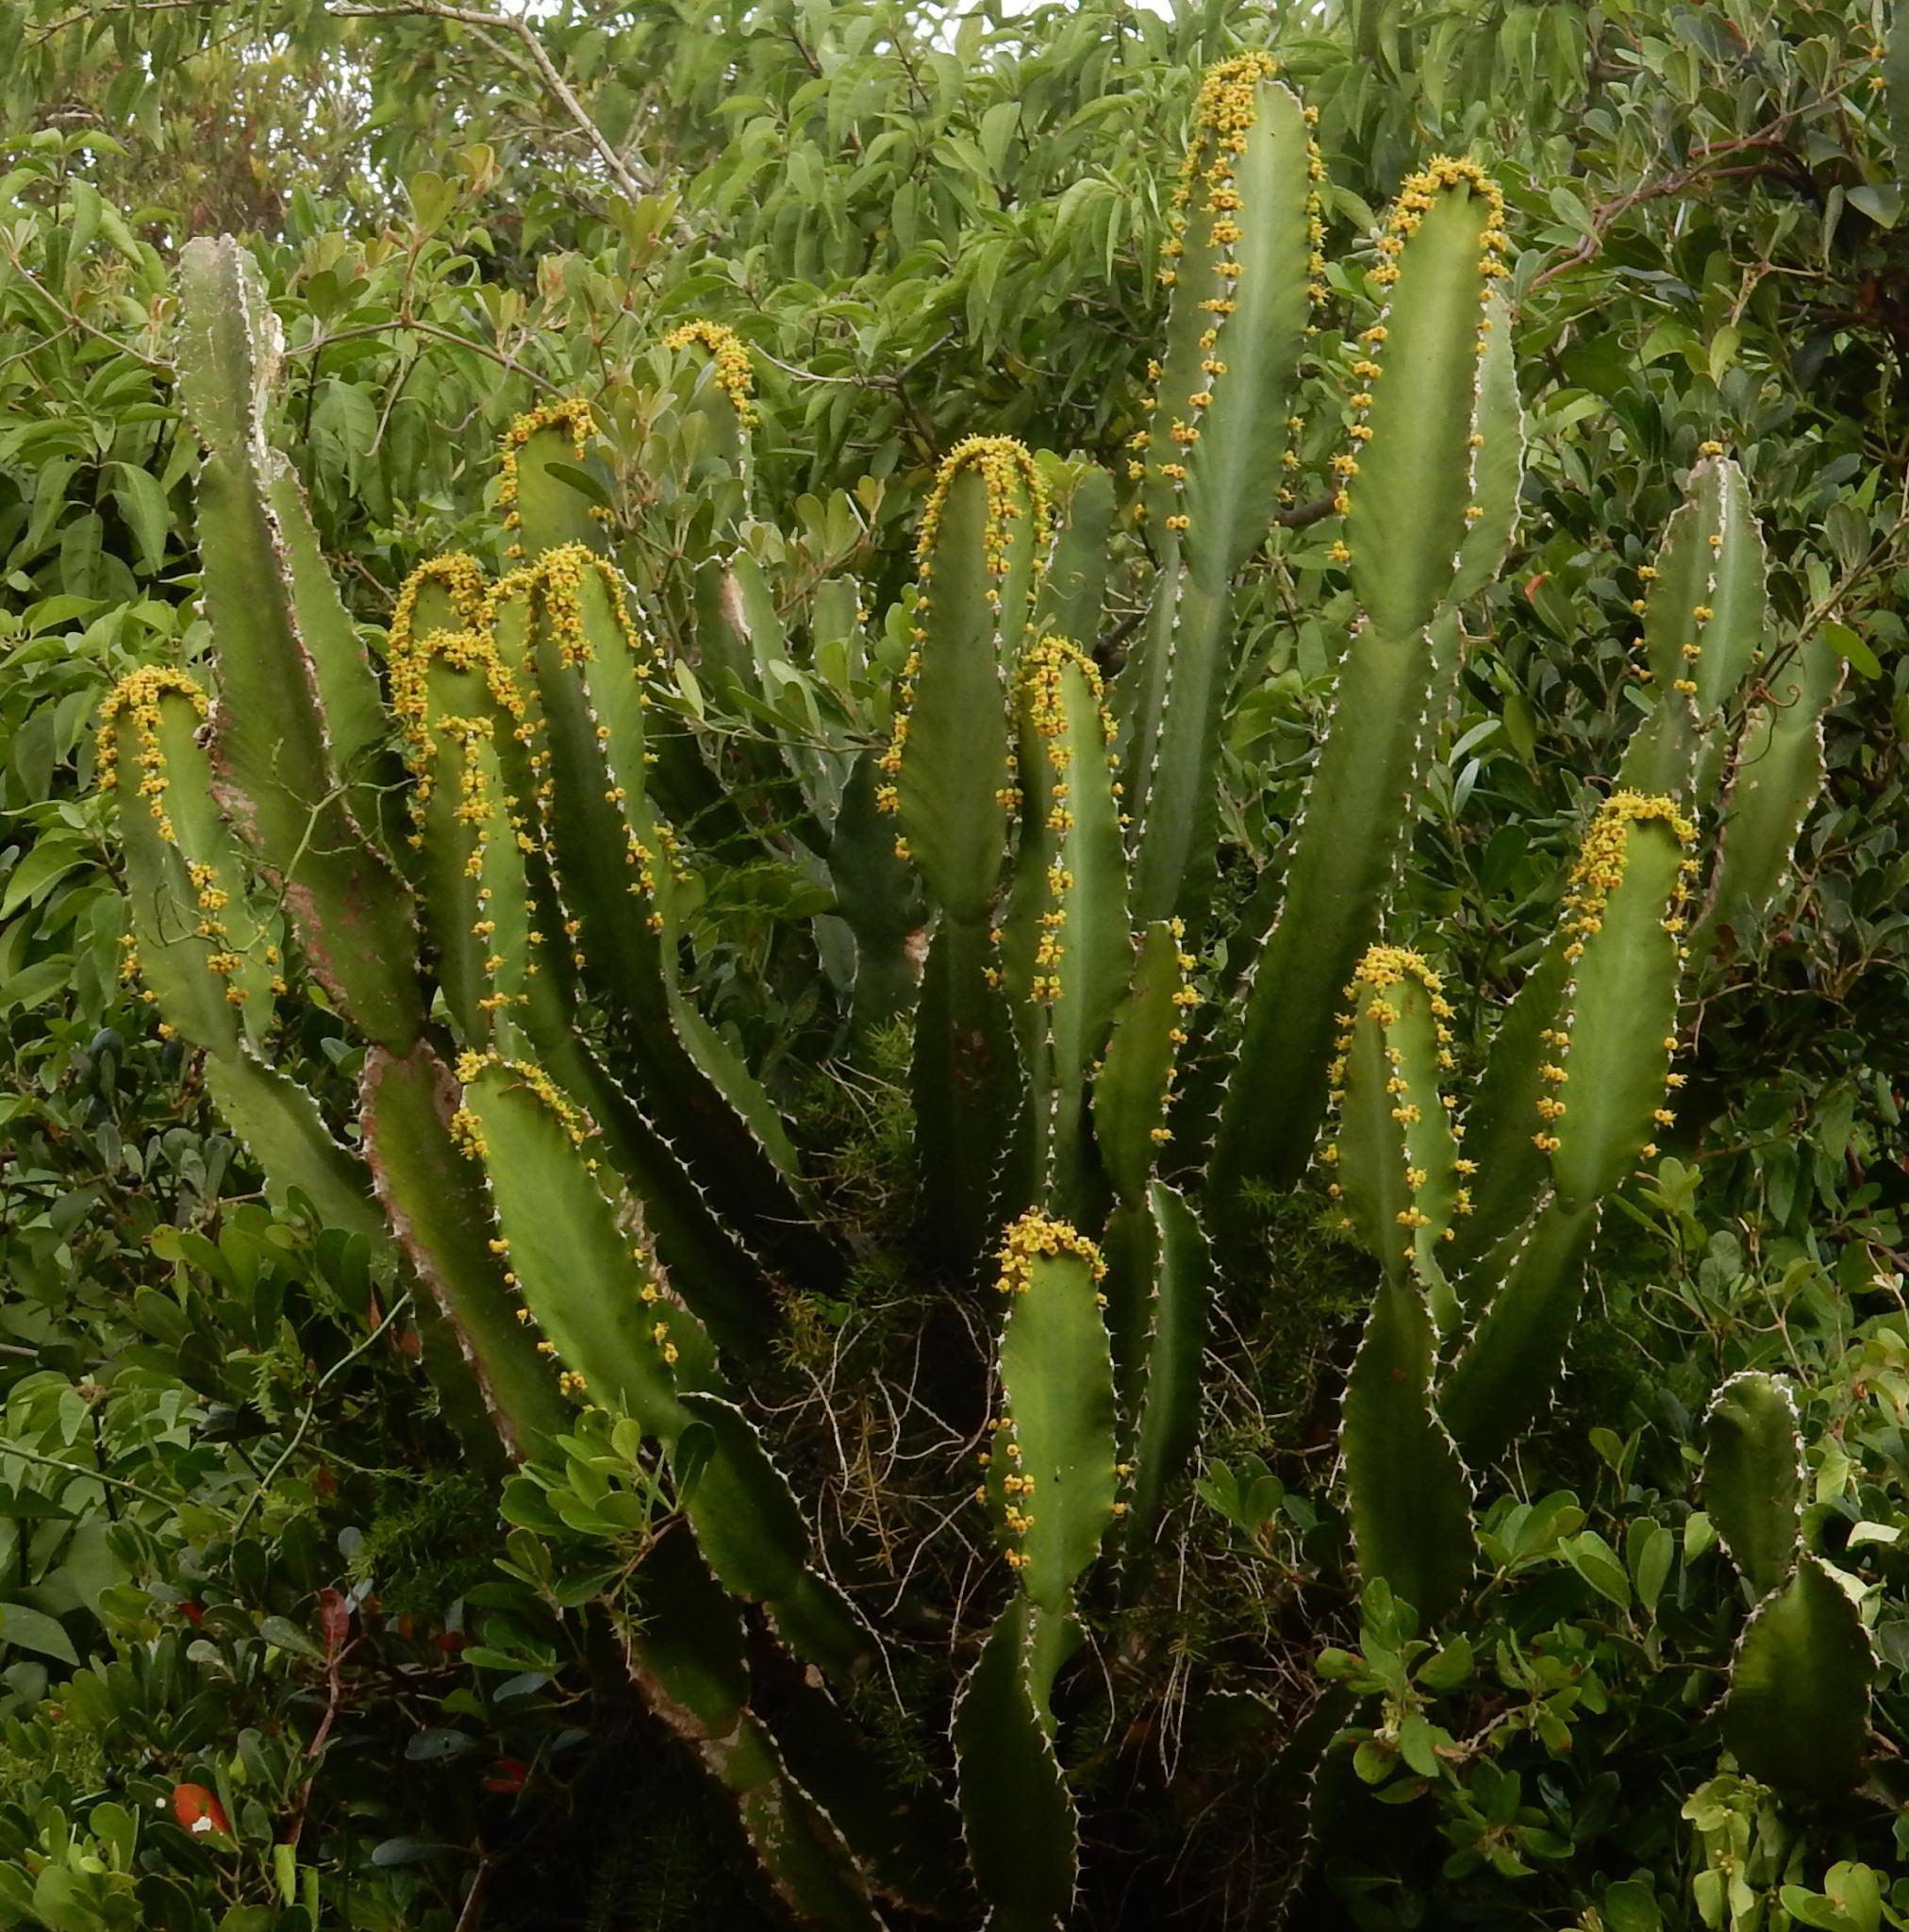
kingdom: Plantae
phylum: Tracheophyta
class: Magnoliopsida
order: Malpighiales
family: Euphorbiaceae
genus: Euphorbia
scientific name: Euphorbia triangularis
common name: Chandelier tree
